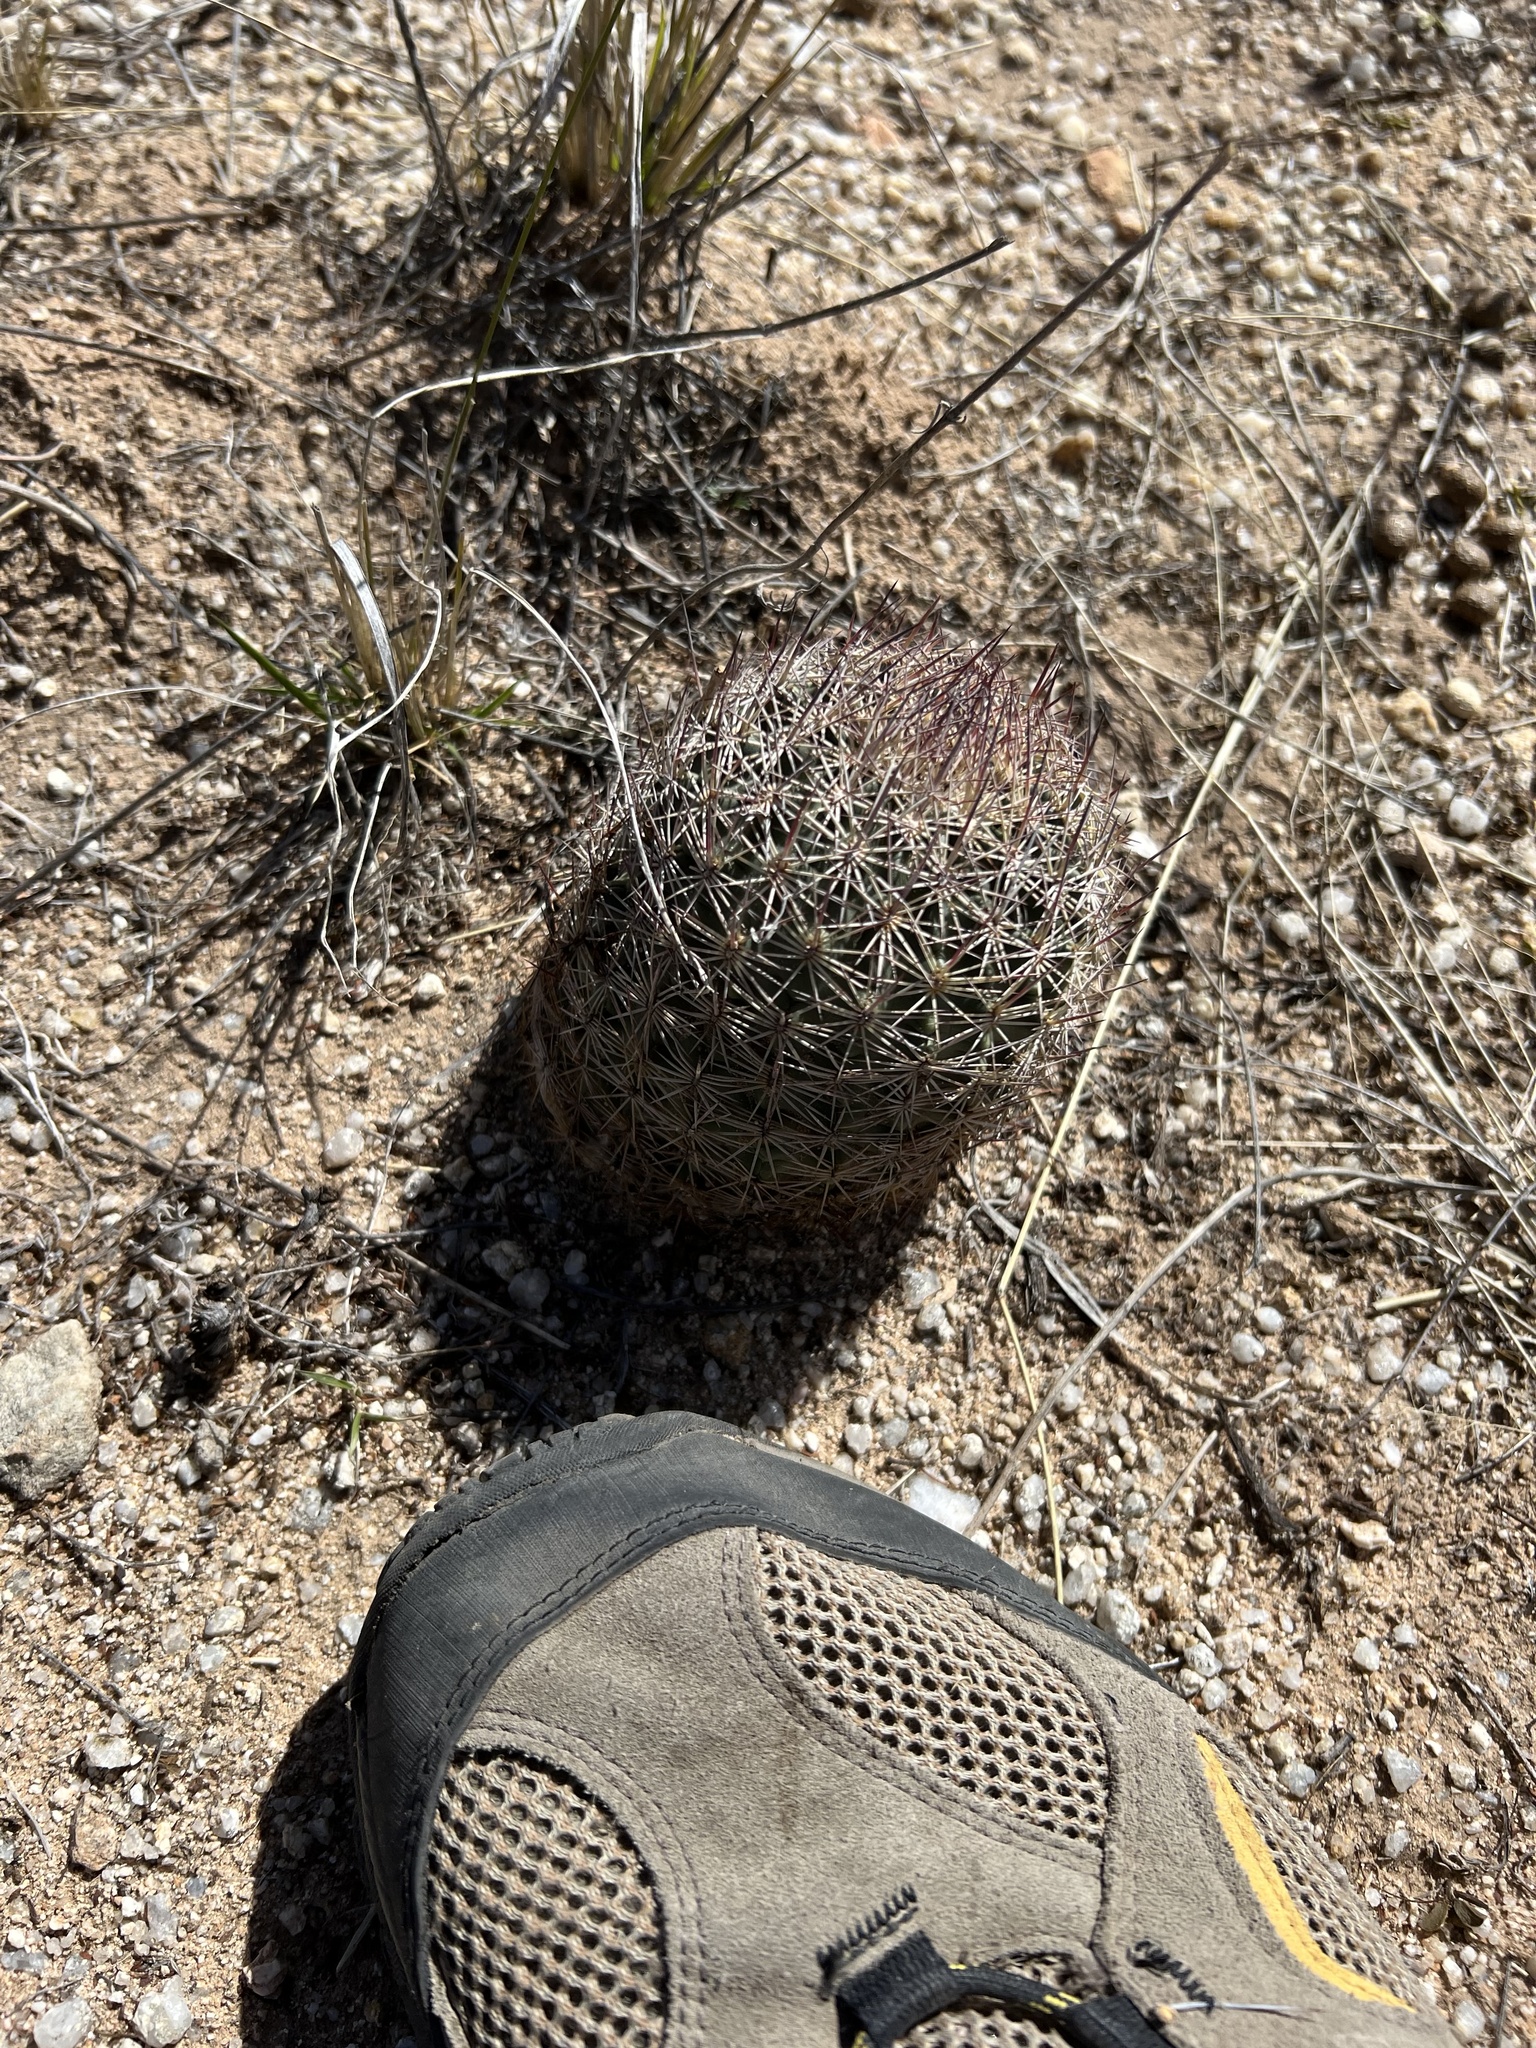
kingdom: Plantae
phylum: Tracheophyta
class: Magnoliopsida
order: Caryophyllales
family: Cactaceae
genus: Sclerocactus
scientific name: Sclerocactus johnsonii
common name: Eight-spine fishhook cactus
